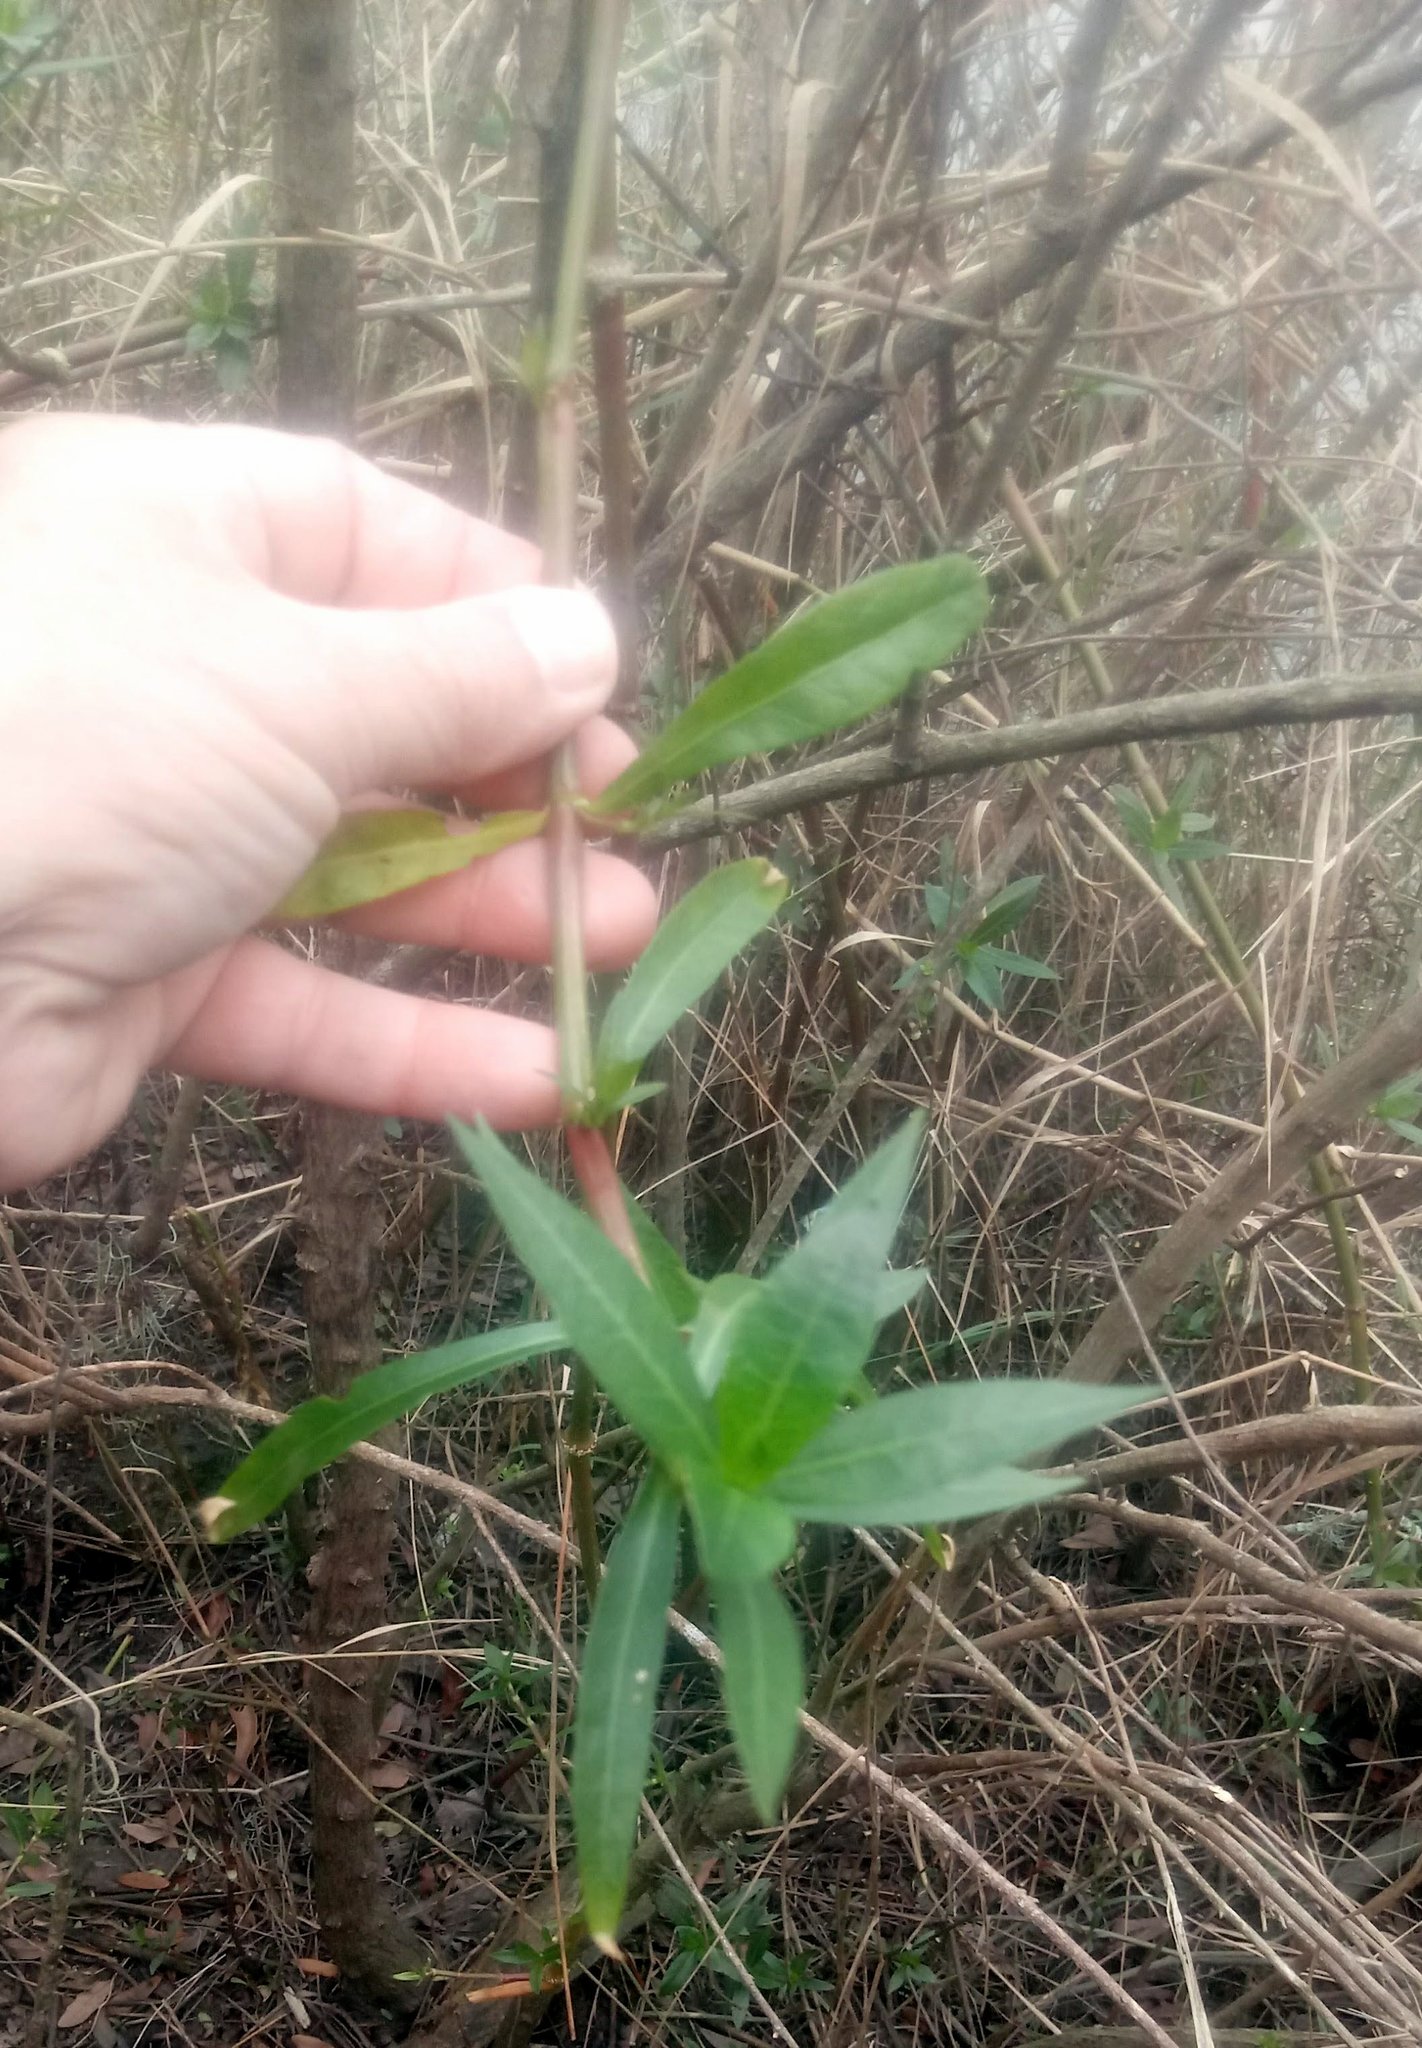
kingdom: Plantae
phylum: Tracheophyta
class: Magnoliopsida
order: Caryophyllales
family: Amaranthaceae
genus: Alternanthera
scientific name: Alternanthera philoxeroides
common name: Alligatorweed
